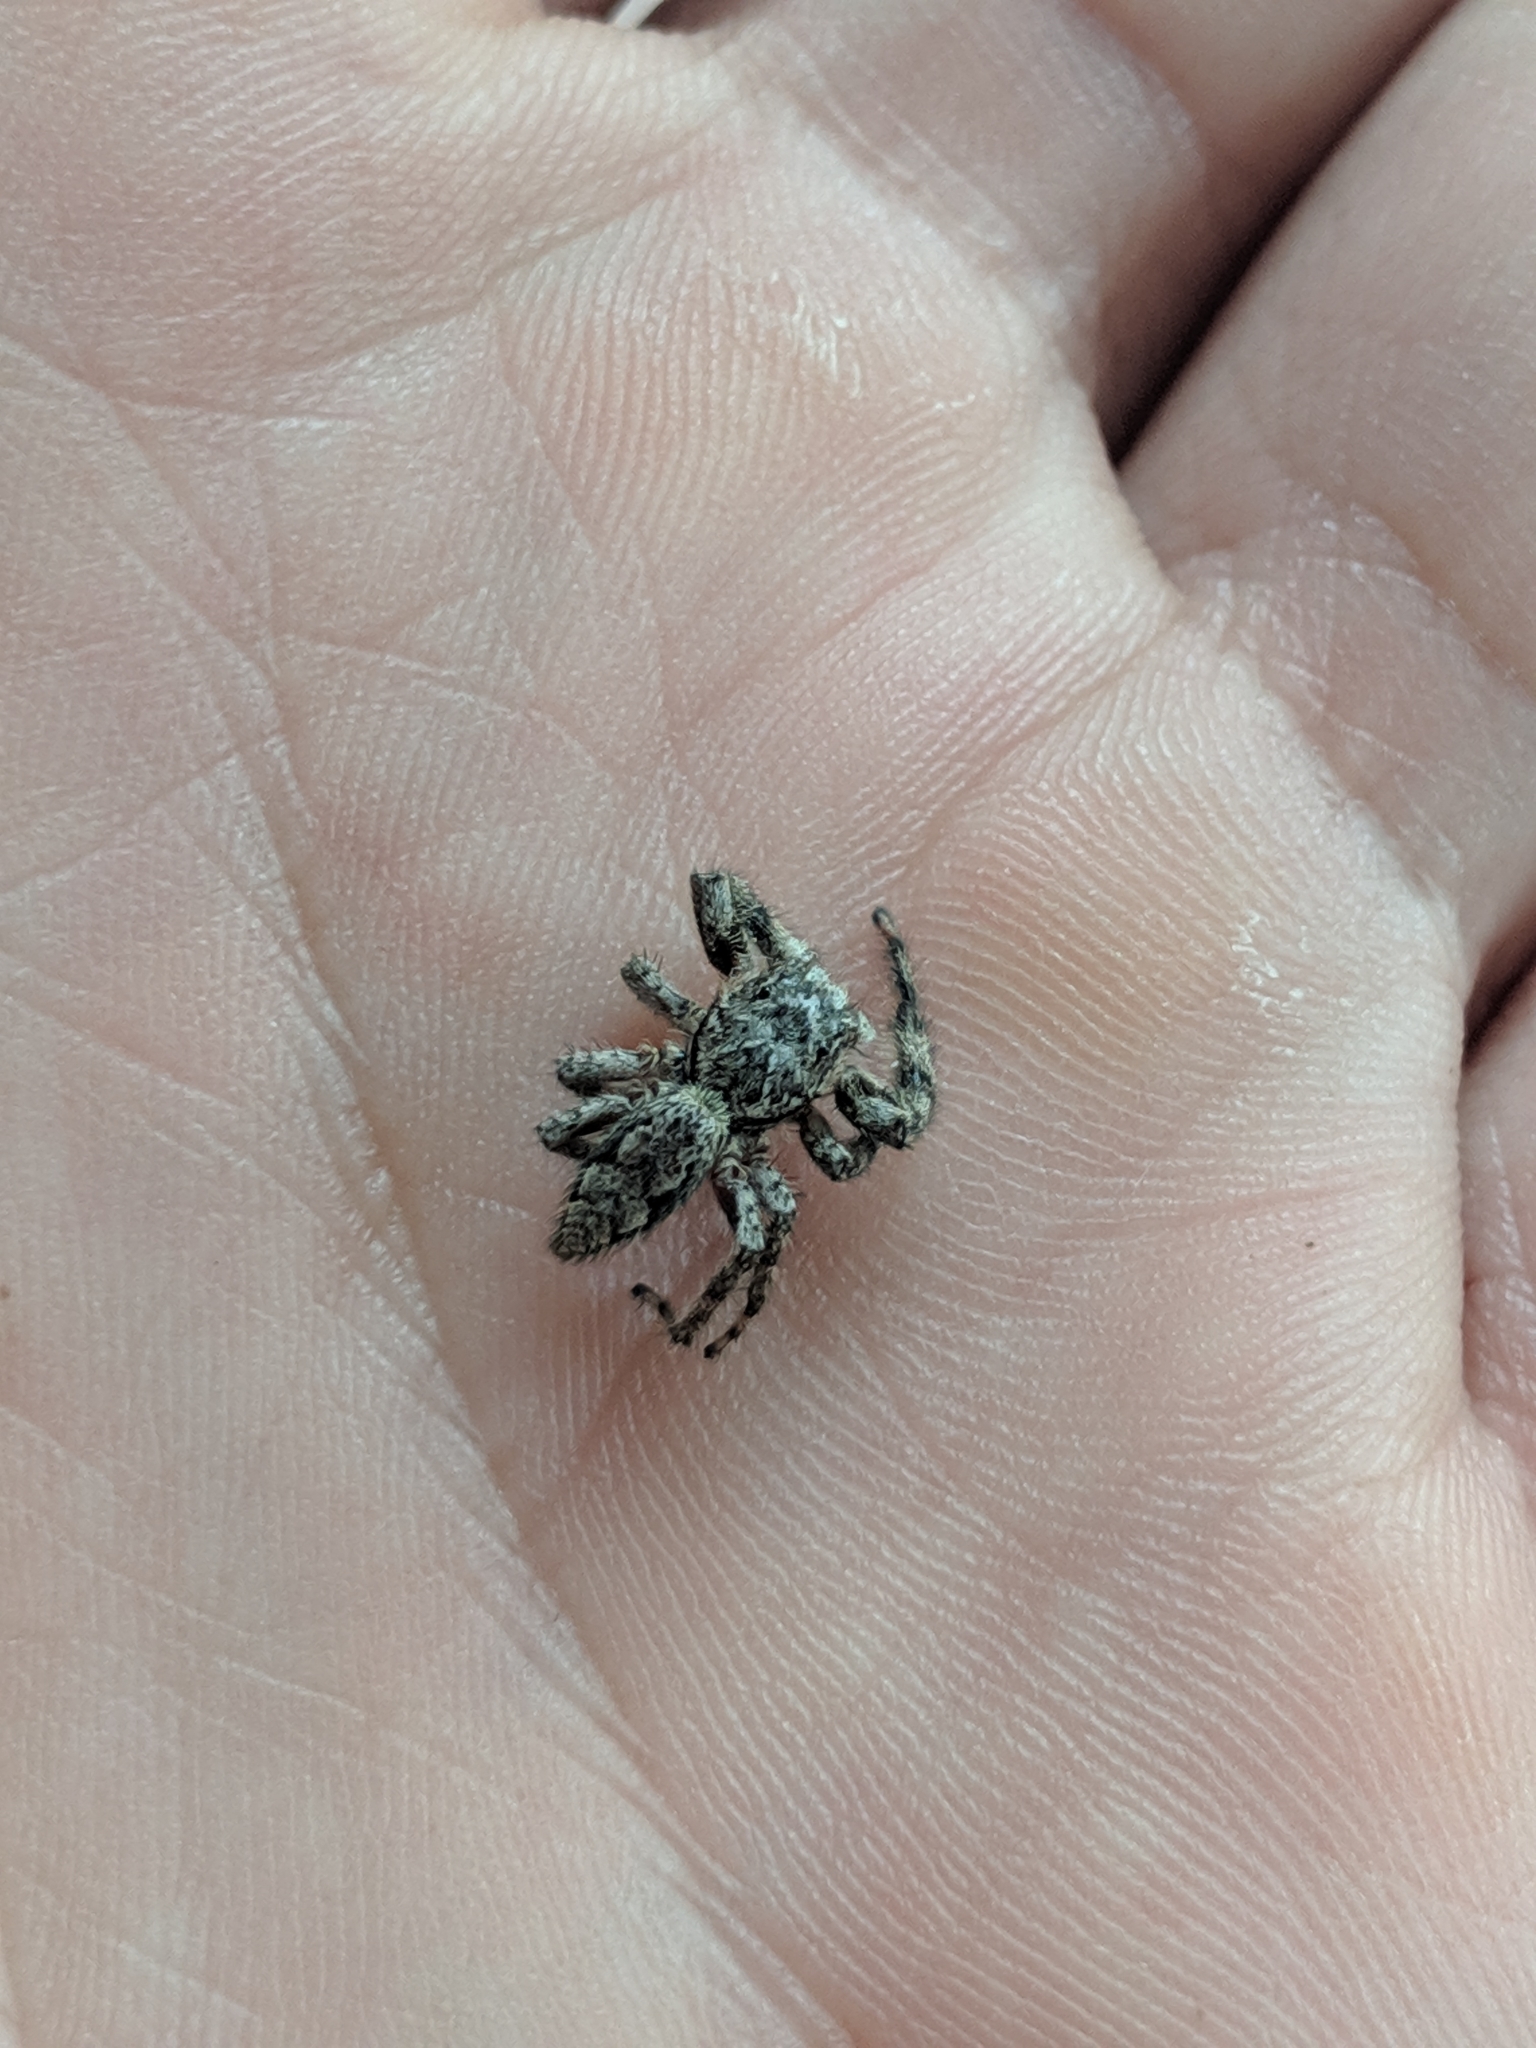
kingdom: Animalia
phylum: Arthropoda
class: Arachnida
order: Araneae
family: Salticidae
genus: Platycryptus
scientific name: Platycryptus undatus
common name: Tan jumping spider
